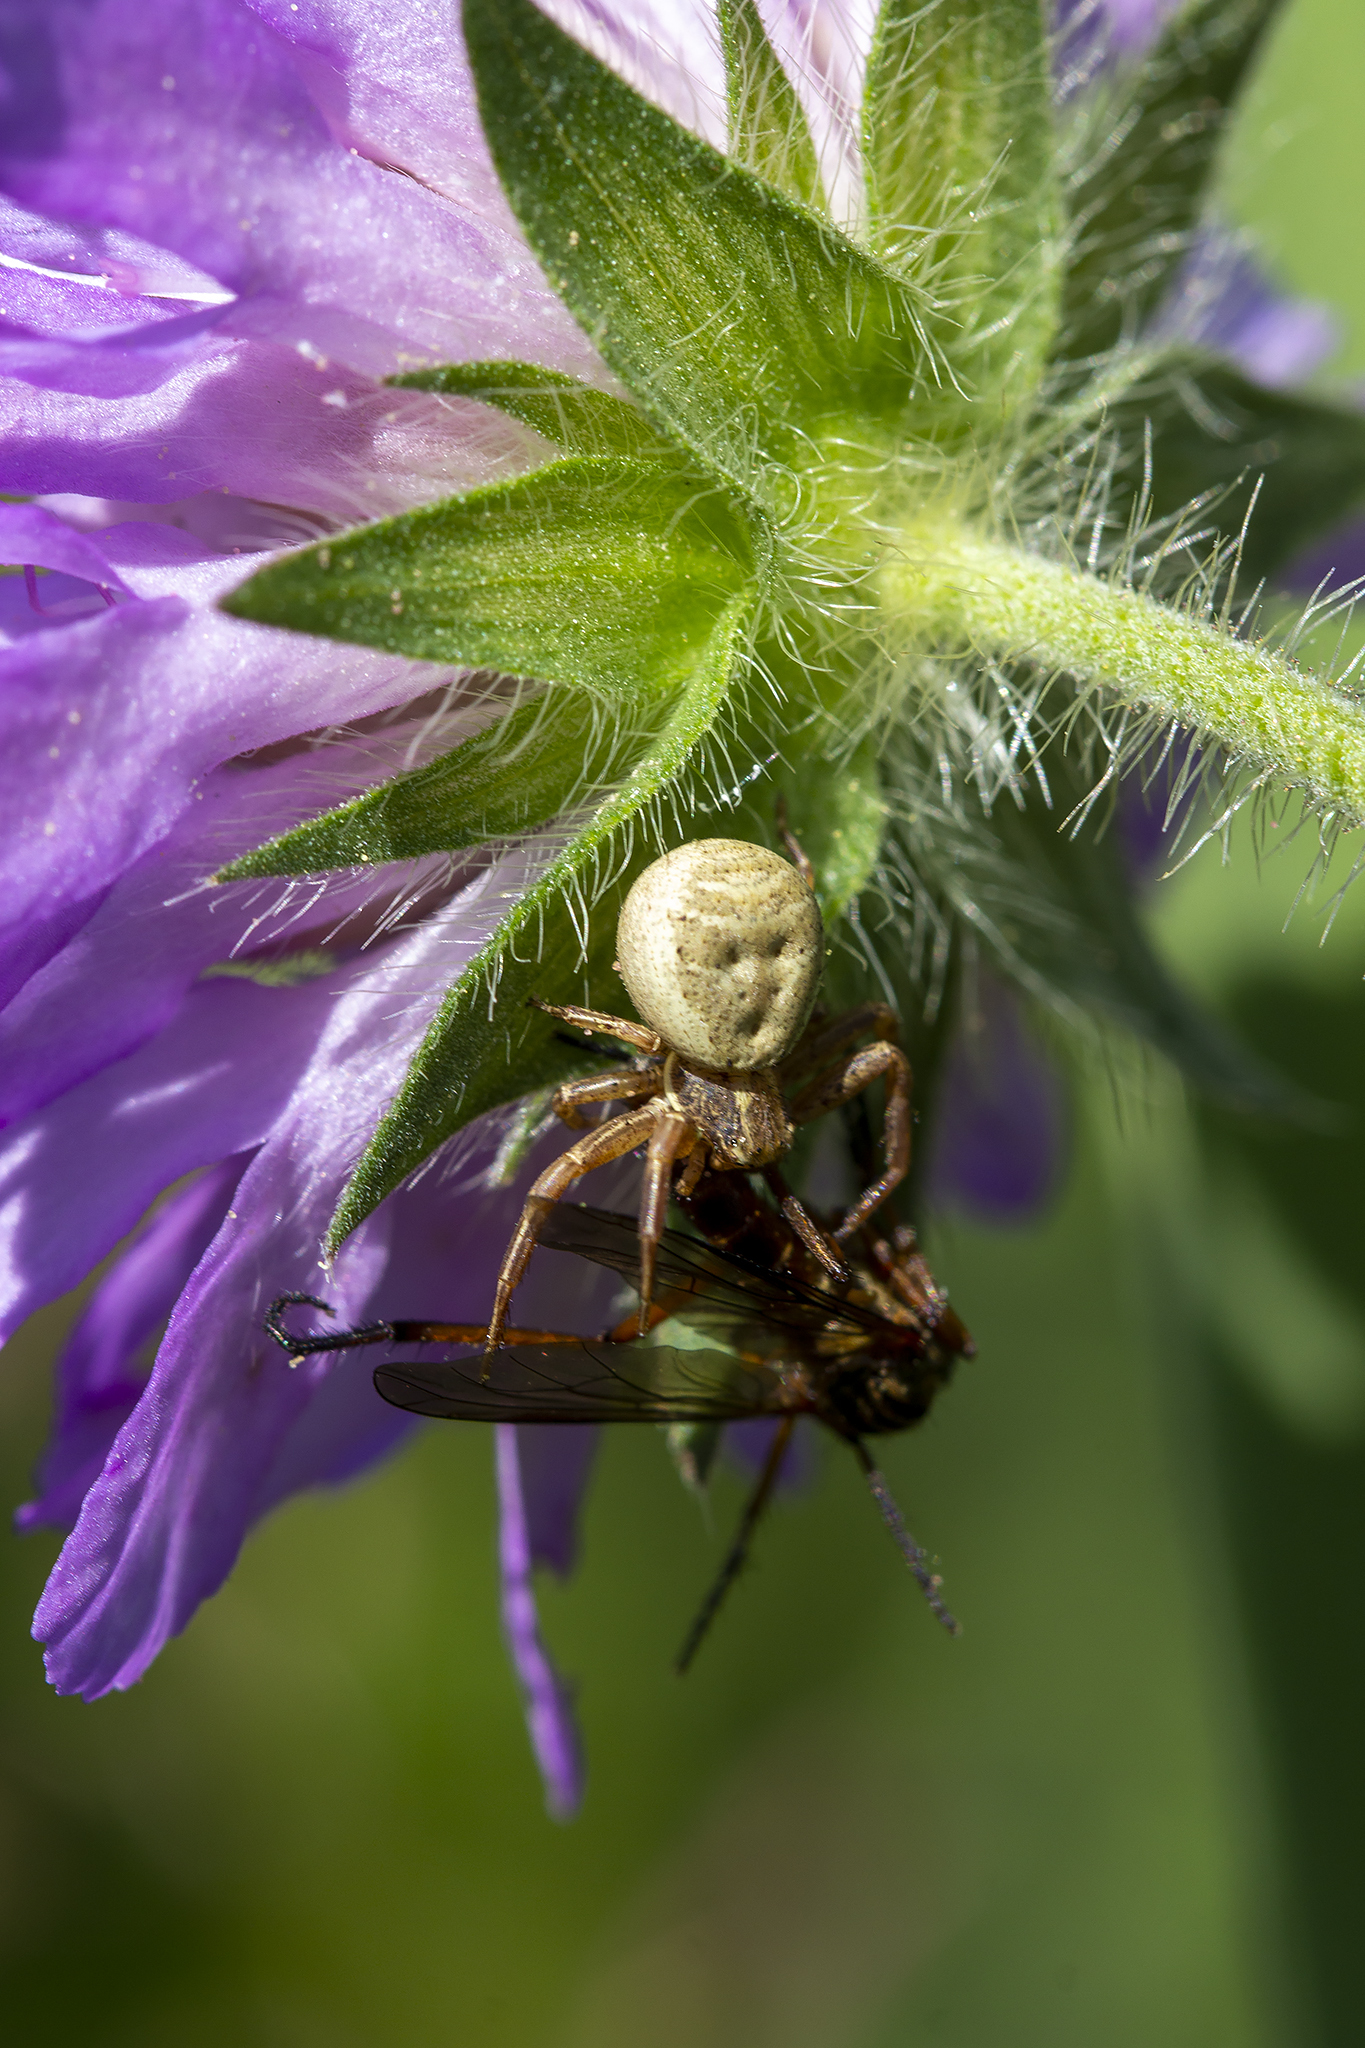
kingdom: Animalia
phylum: Arthropoda
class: Arachnida
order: Araneae
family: Thomisidae
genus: Xysticus
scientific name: Xysticus
